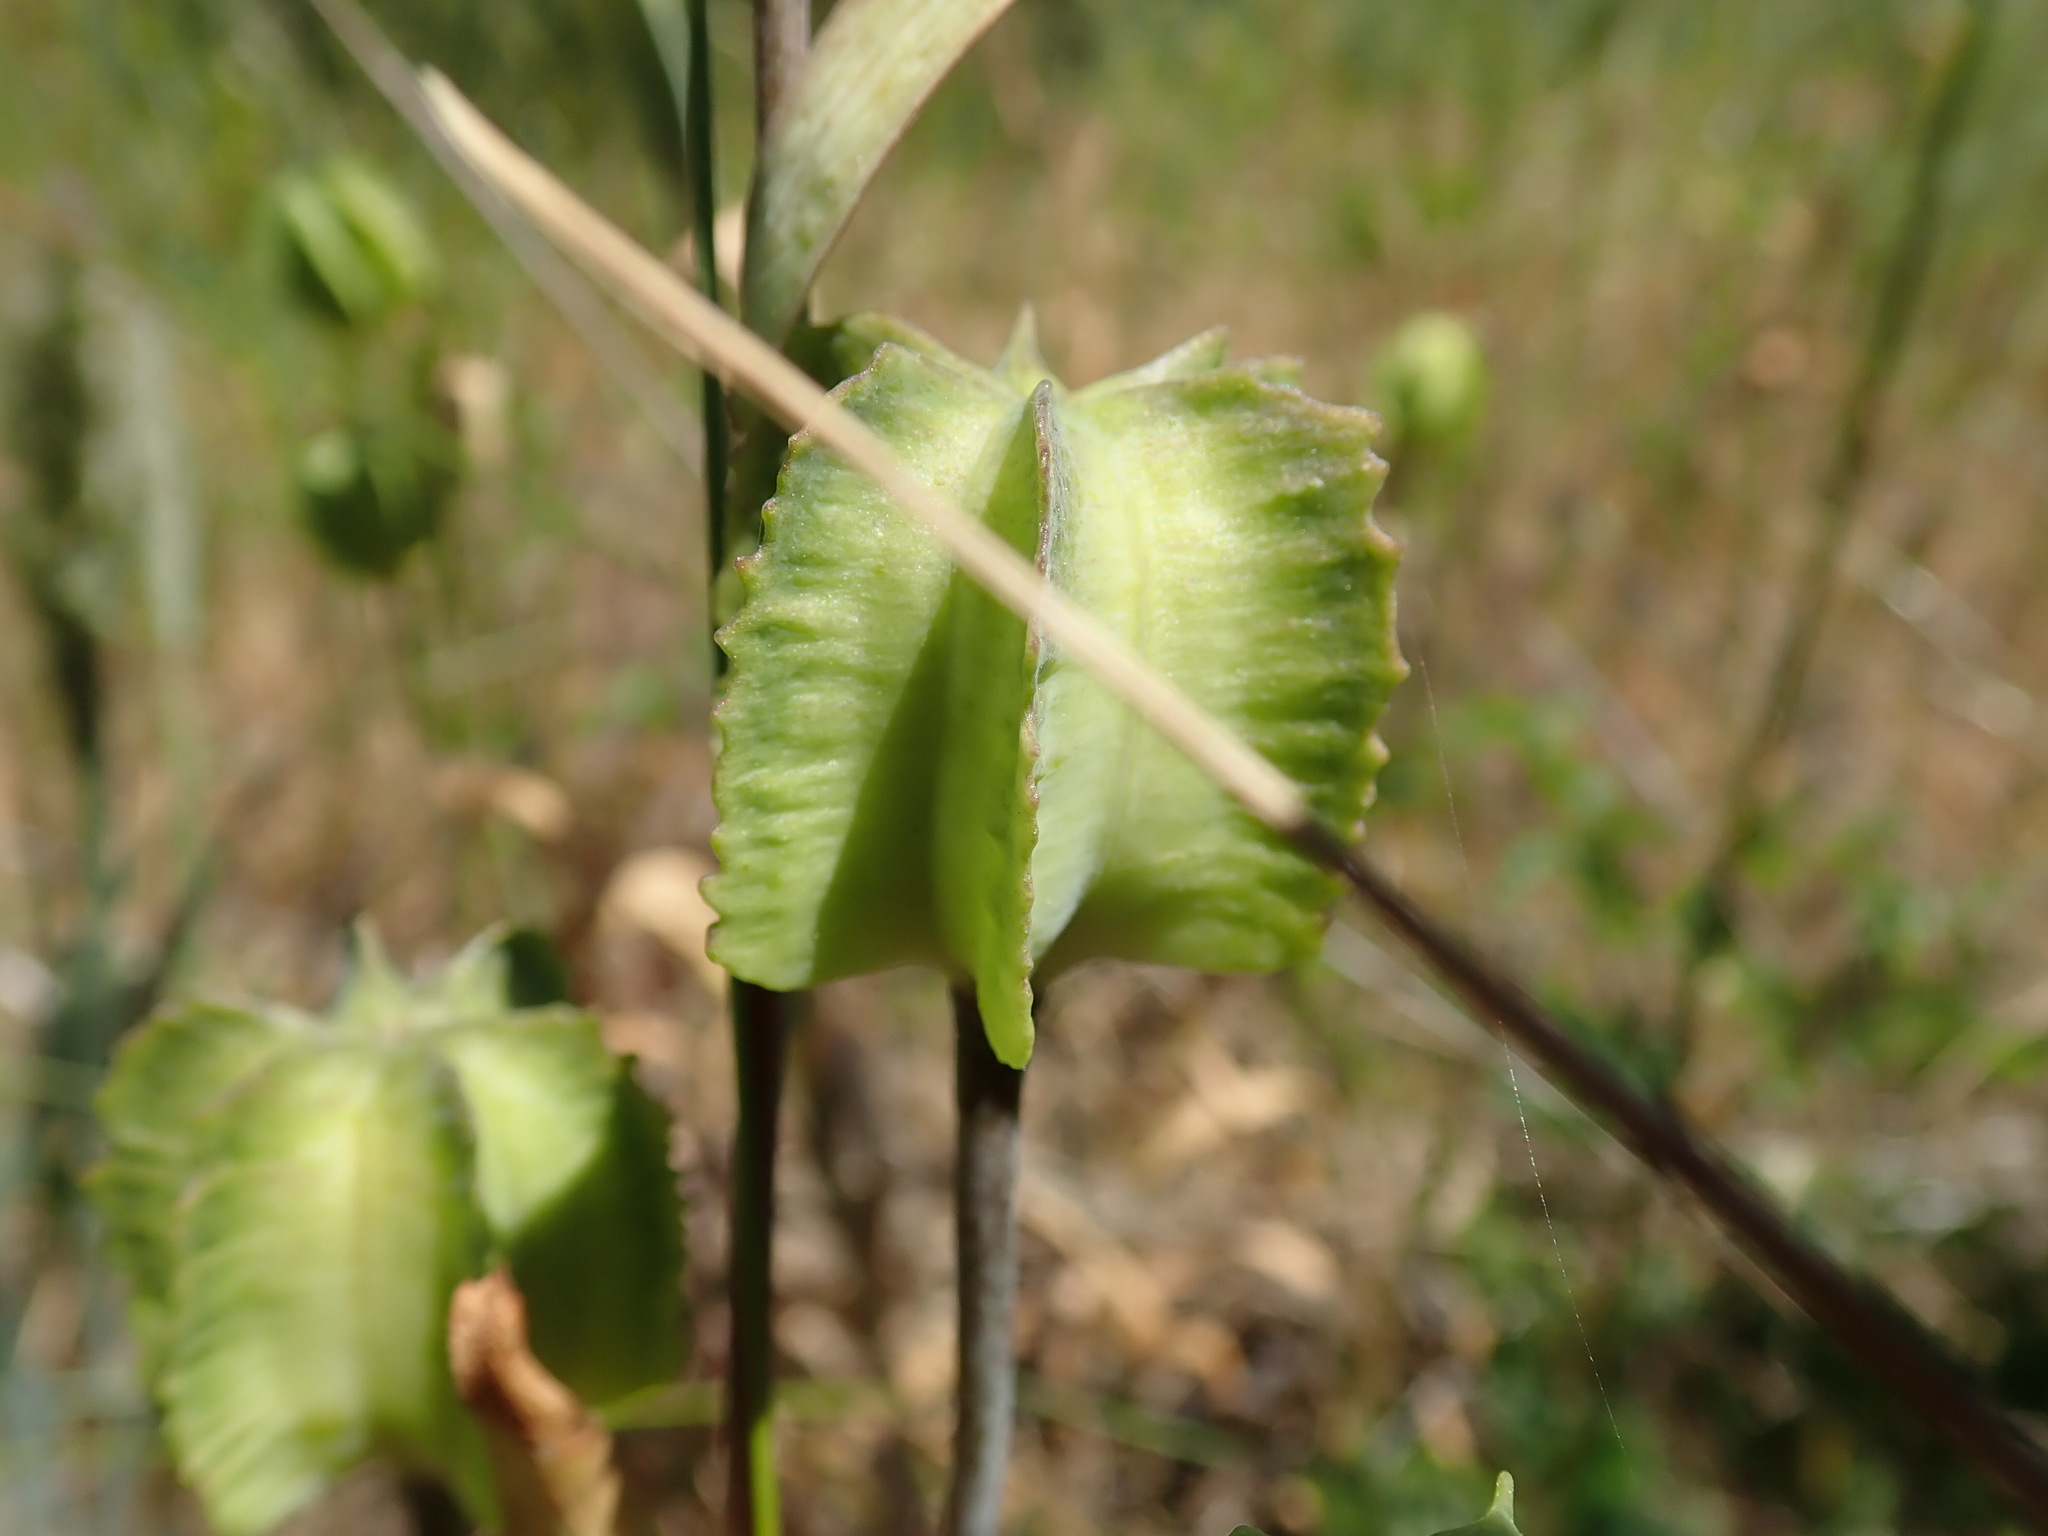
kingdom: Plantae
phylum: Tracheophyta
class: Liliopsida
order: Liliales
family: Liliaceae
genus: Fritillaria
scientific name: Fritillaria affinis
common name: Ojai fritillary
